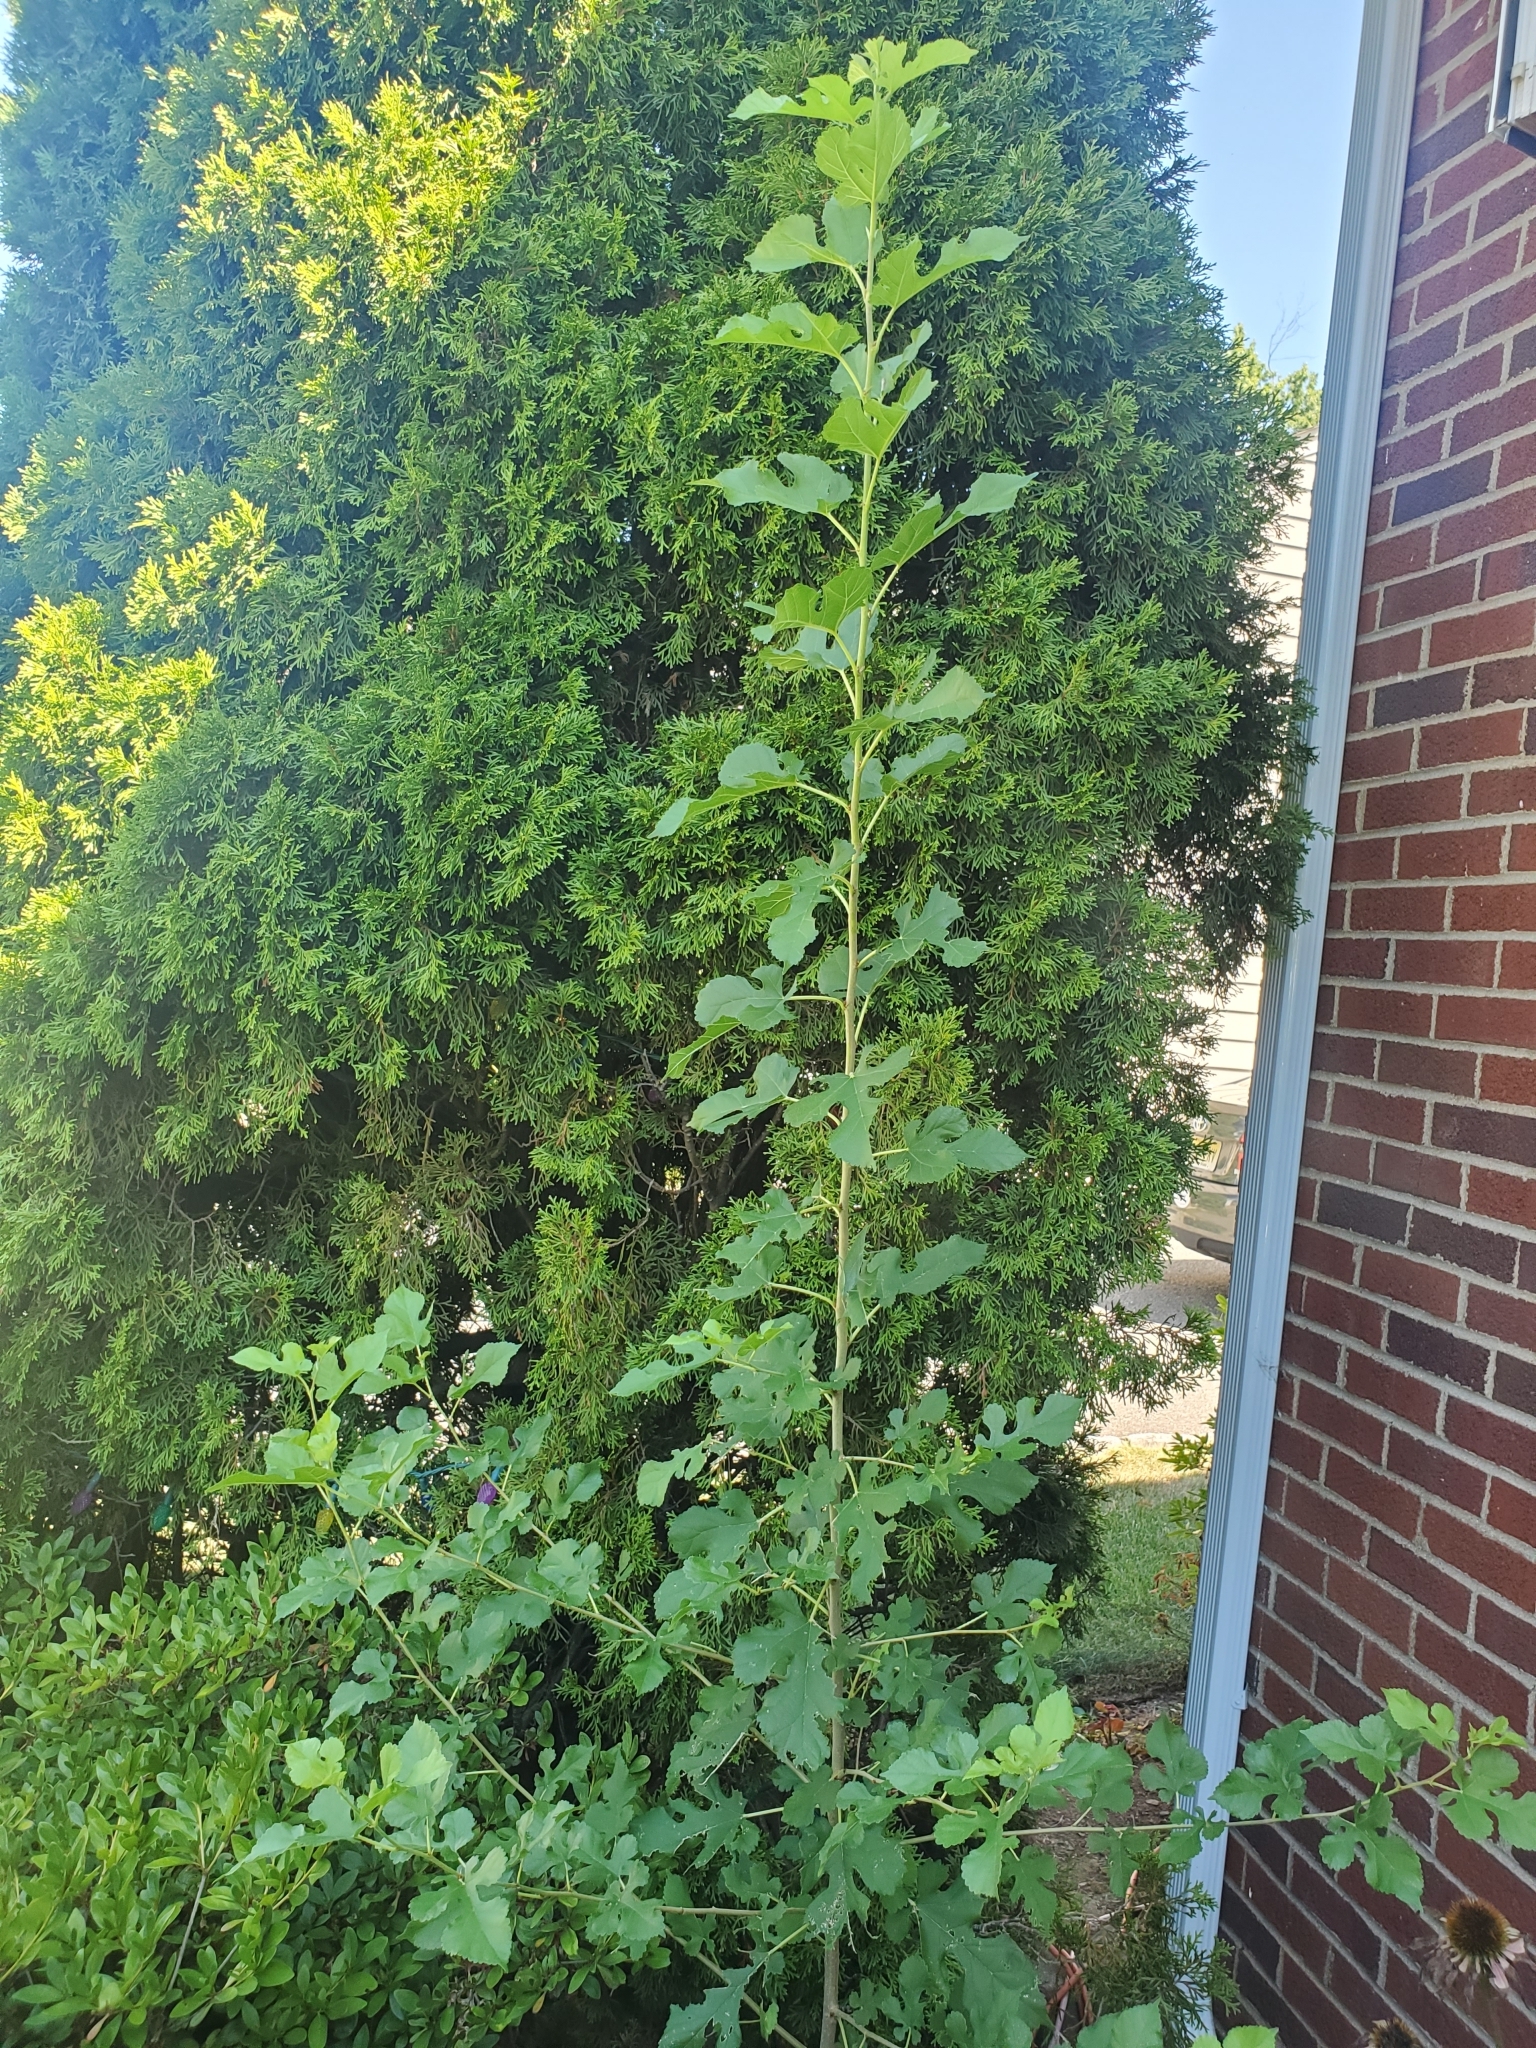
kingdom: Plantae
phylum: Tracheophyta
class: Magnoliopsida
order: Rosales
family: Moraceae
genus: Morus
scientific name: Morus alba
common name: White mulberry
